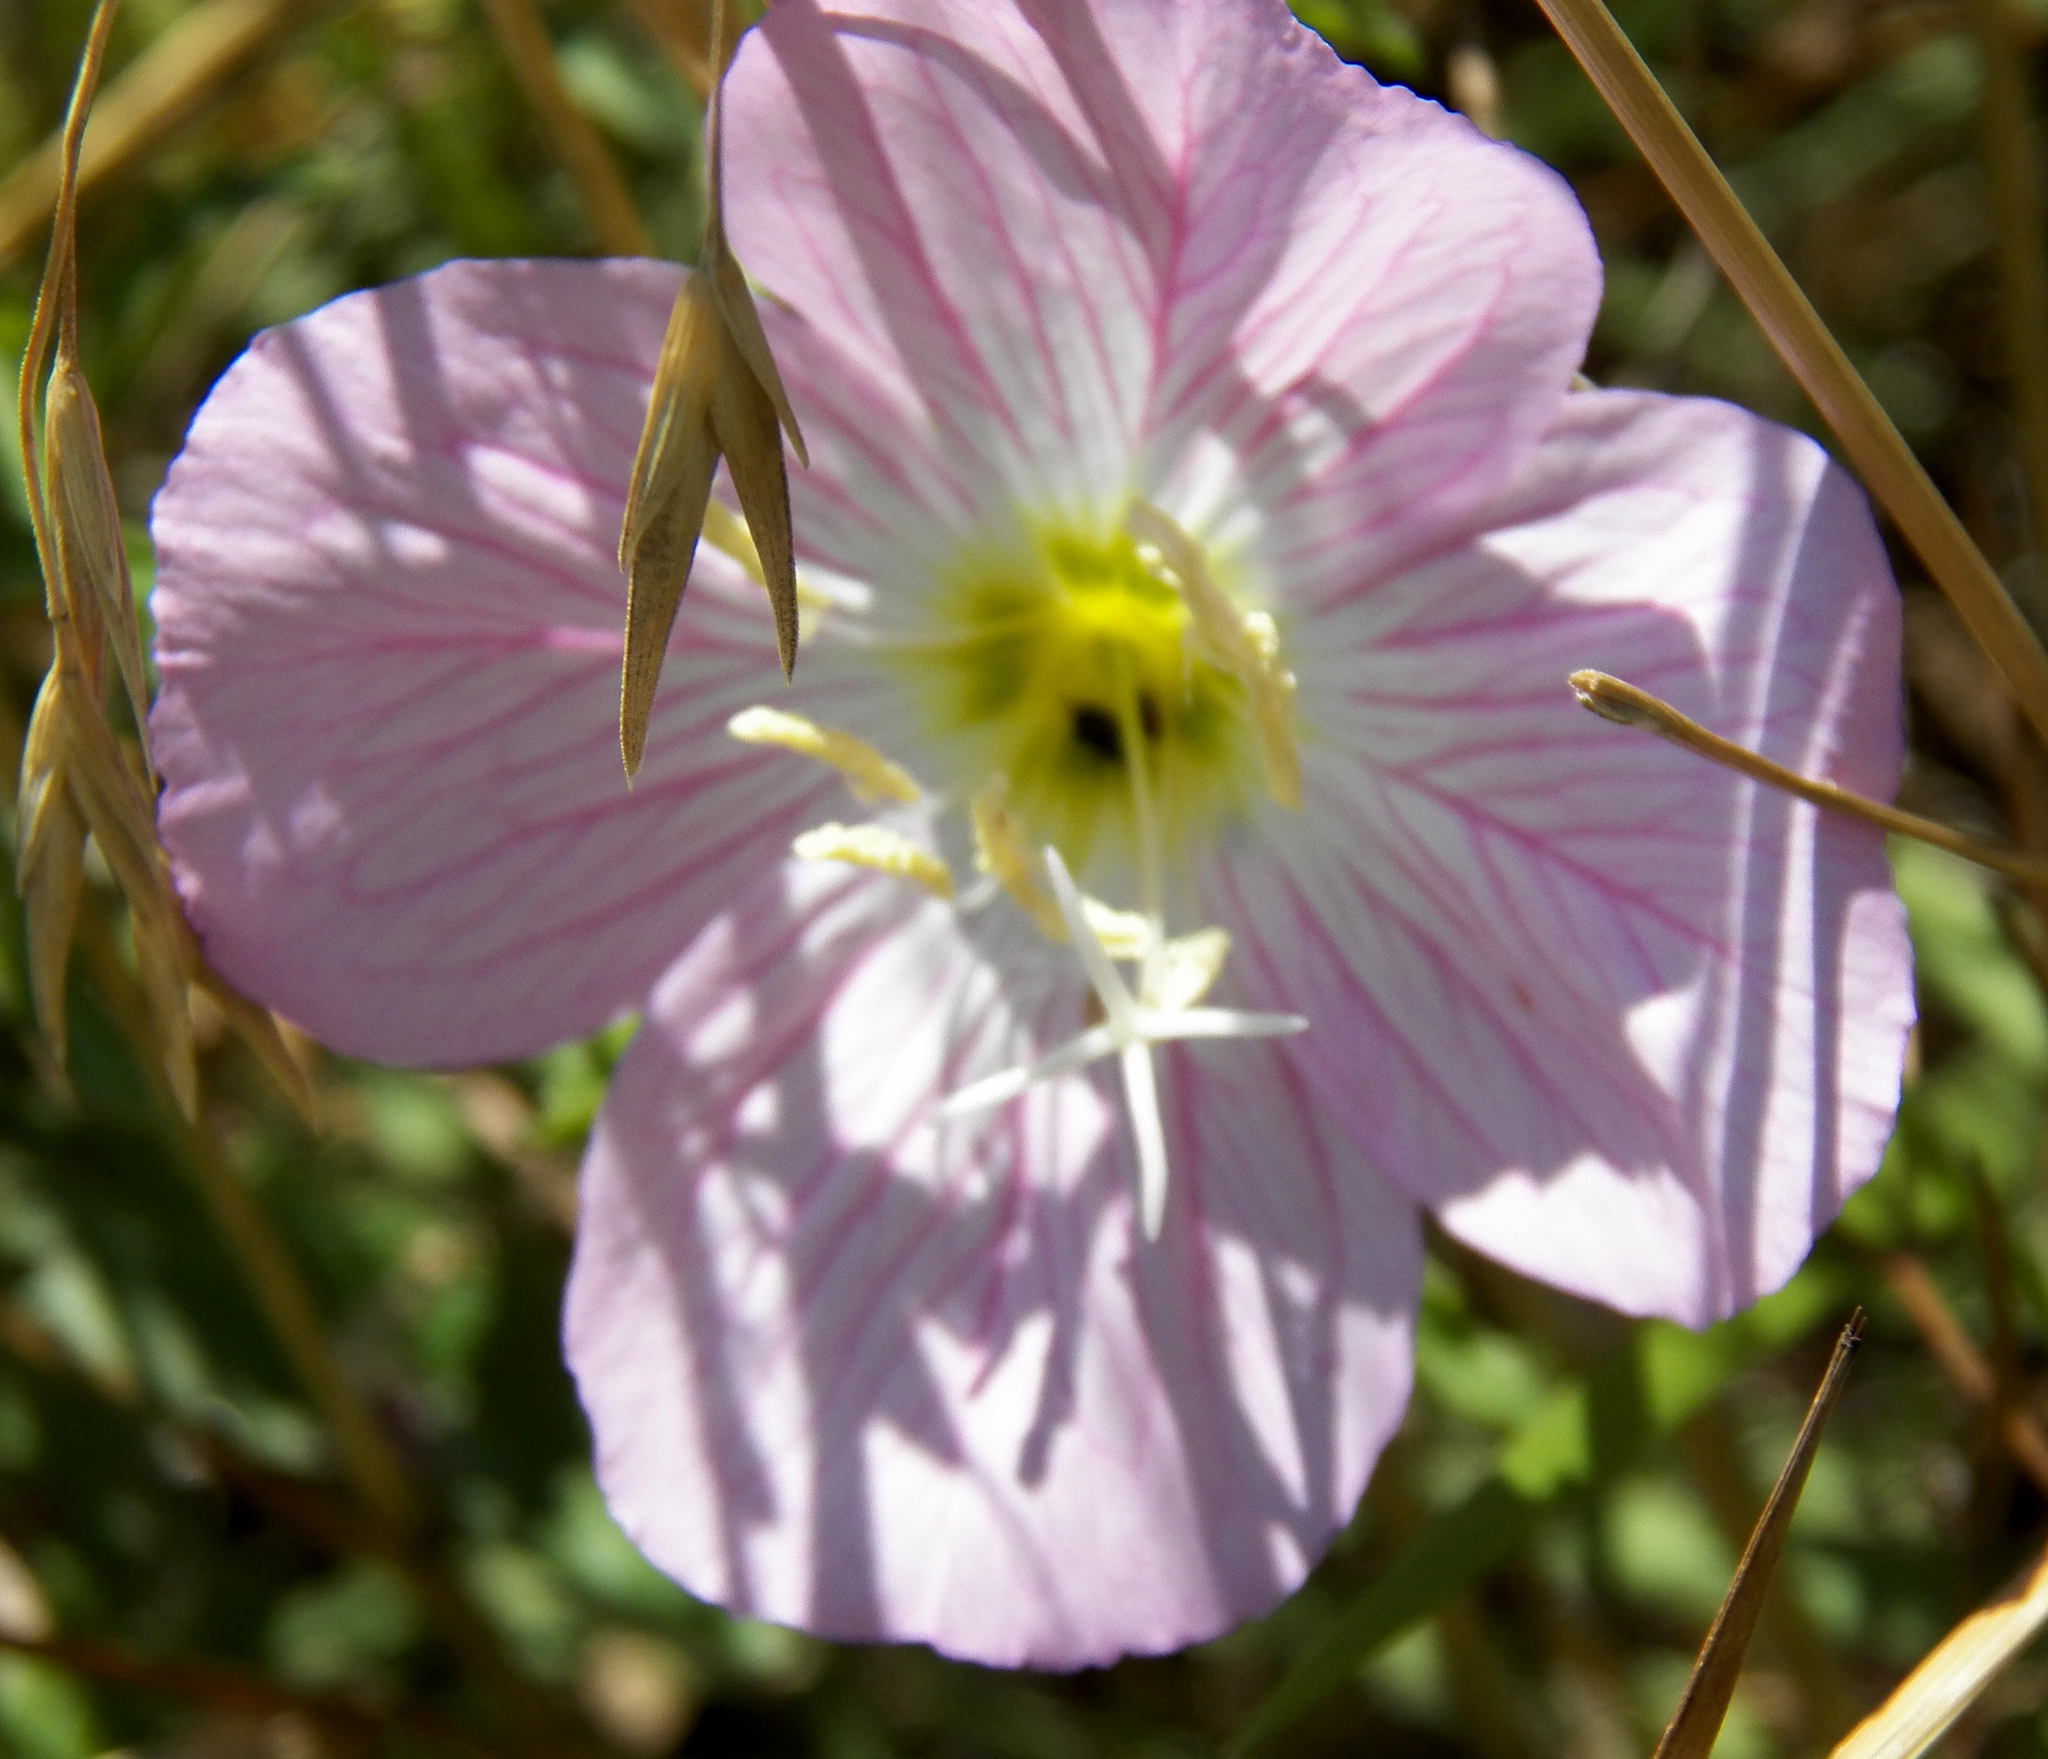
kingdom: Plantae
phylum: Tracheophyta
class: Magnoliopsida
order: Myrtales
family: Onagraceae
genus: Oenothera
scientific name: Oenothera speciosa
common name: White evening-primrose
